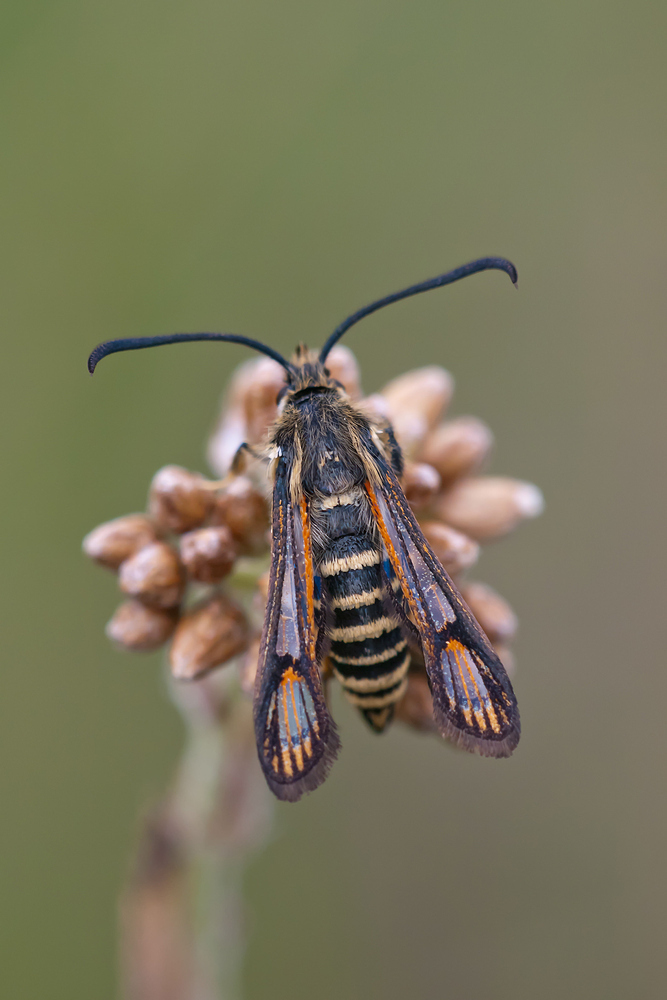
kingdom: Animalia
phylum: Arthropoda
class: Insecta
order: Lepidoptera
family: Sesiidae
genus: Bembecia
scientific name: Bembecia ichneumoniformis
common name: Six-belted clearwing
